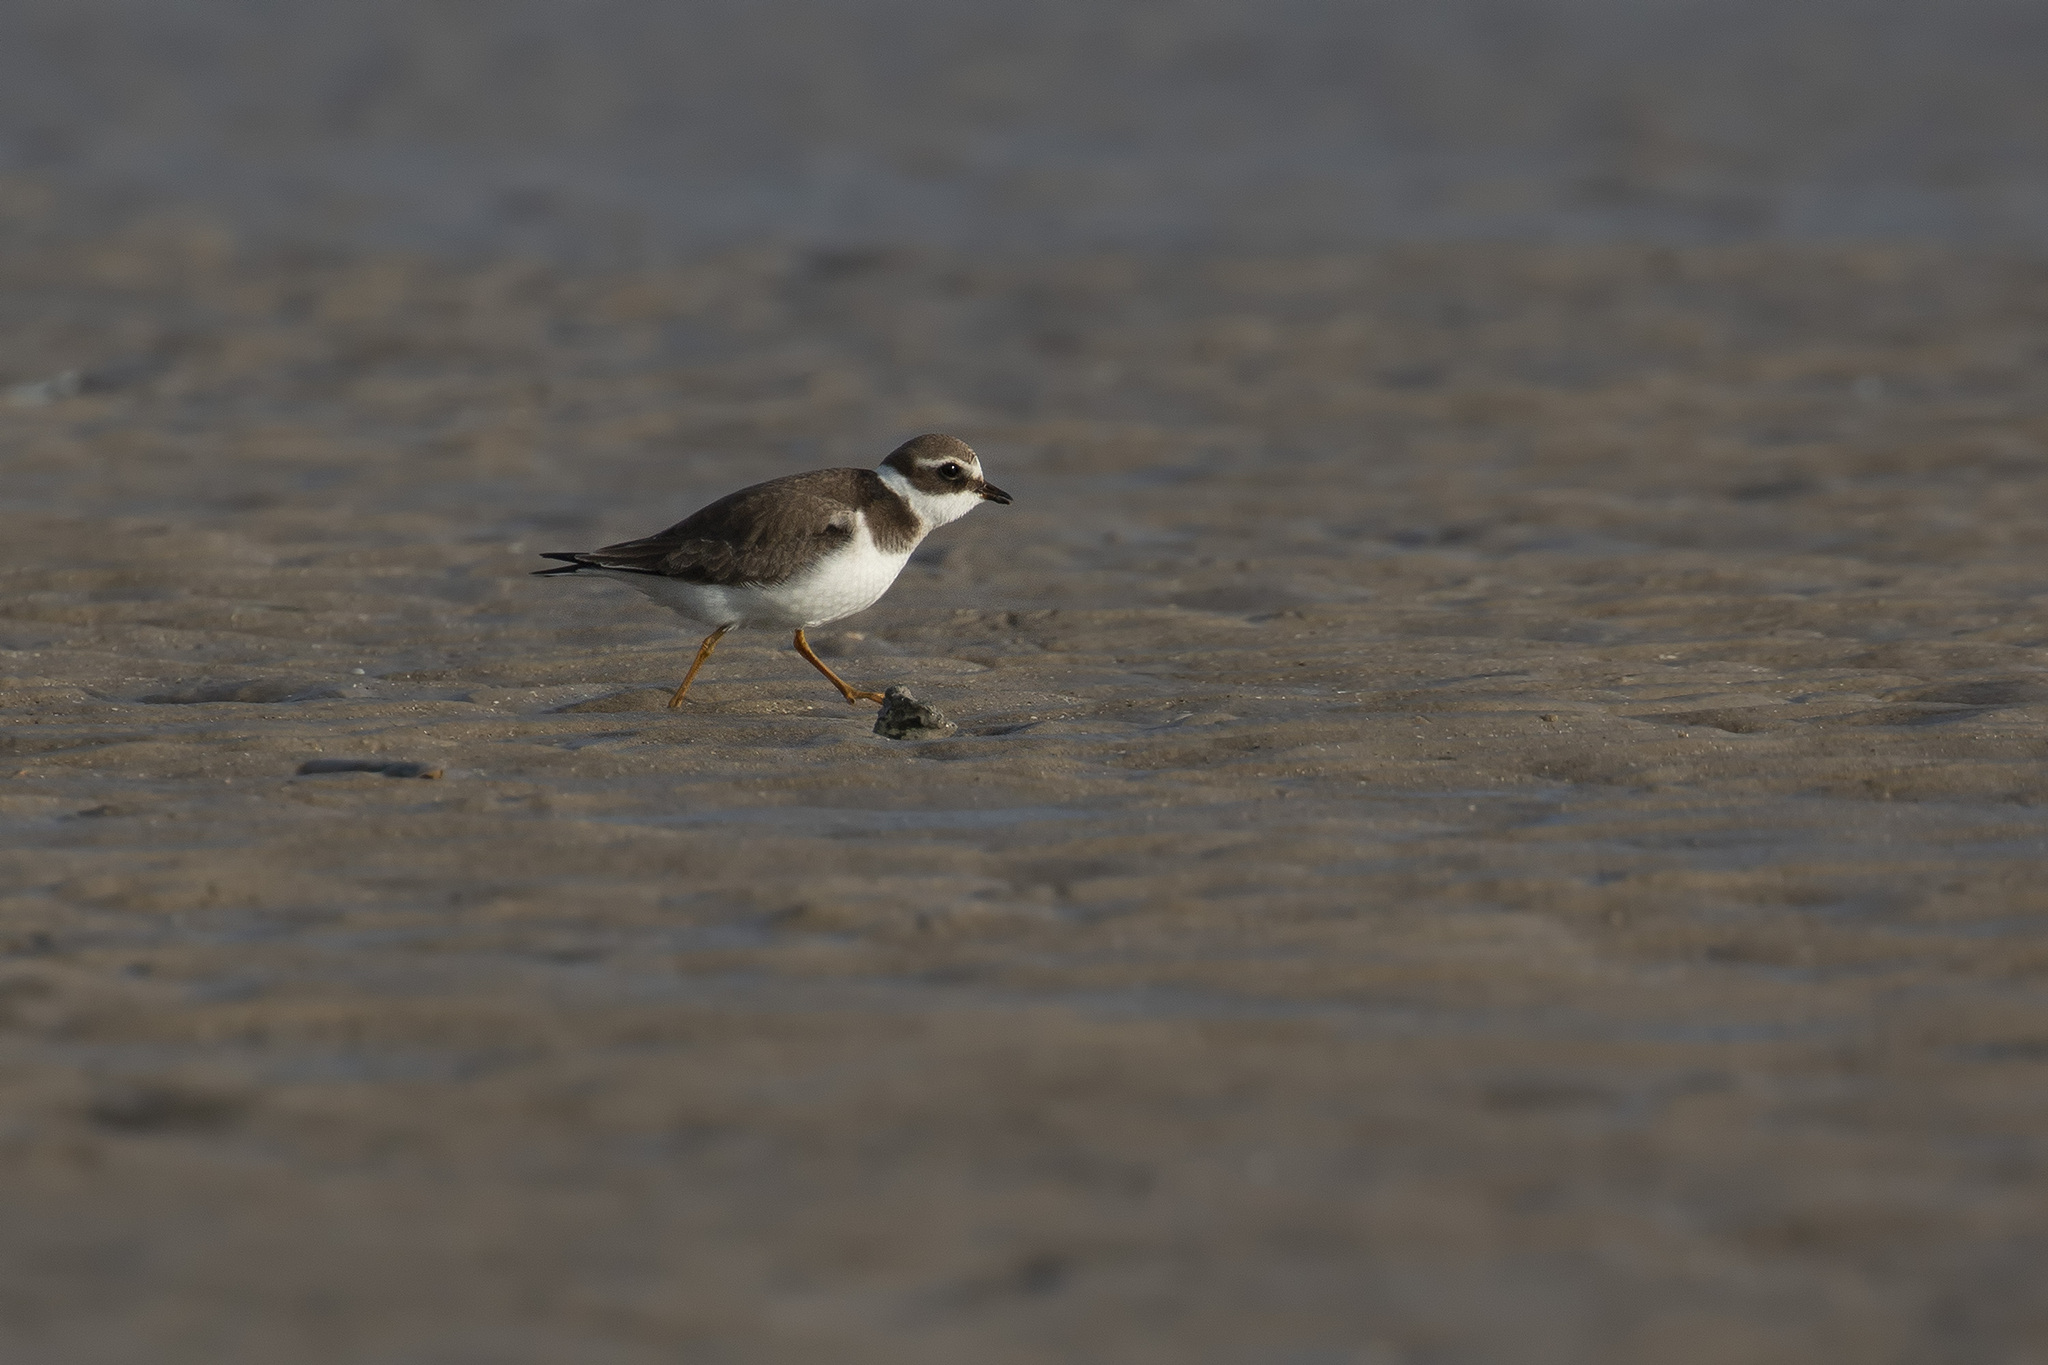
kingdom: Animalia
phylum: Chordata
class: Aves
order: Charadriiformes
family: Charadriidae
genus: Charadrius
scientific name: Charadrius hiaticula
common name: Common ringed plover
